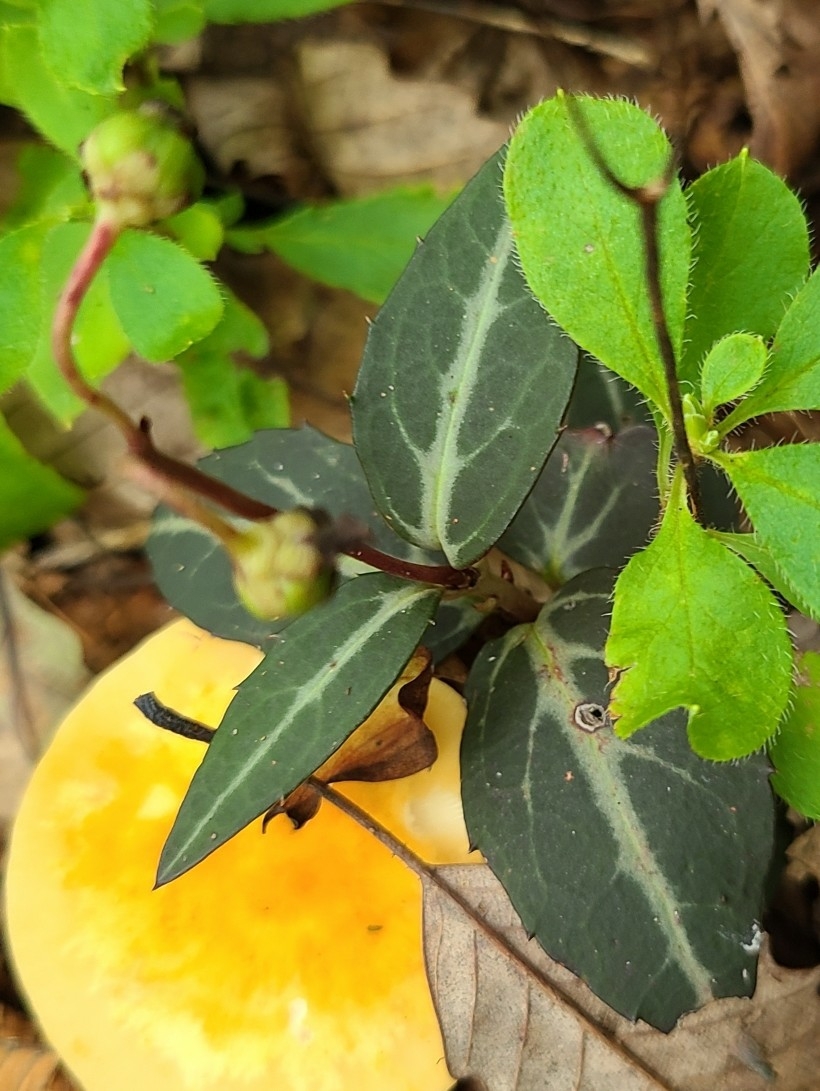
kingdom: Plantae
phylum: Tracheophyta
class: Magnoliopsida
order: Ericales
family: Ericaceae
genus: Chimaphila
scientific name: Chimaphila maculata
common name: Spotted pipsissewa
